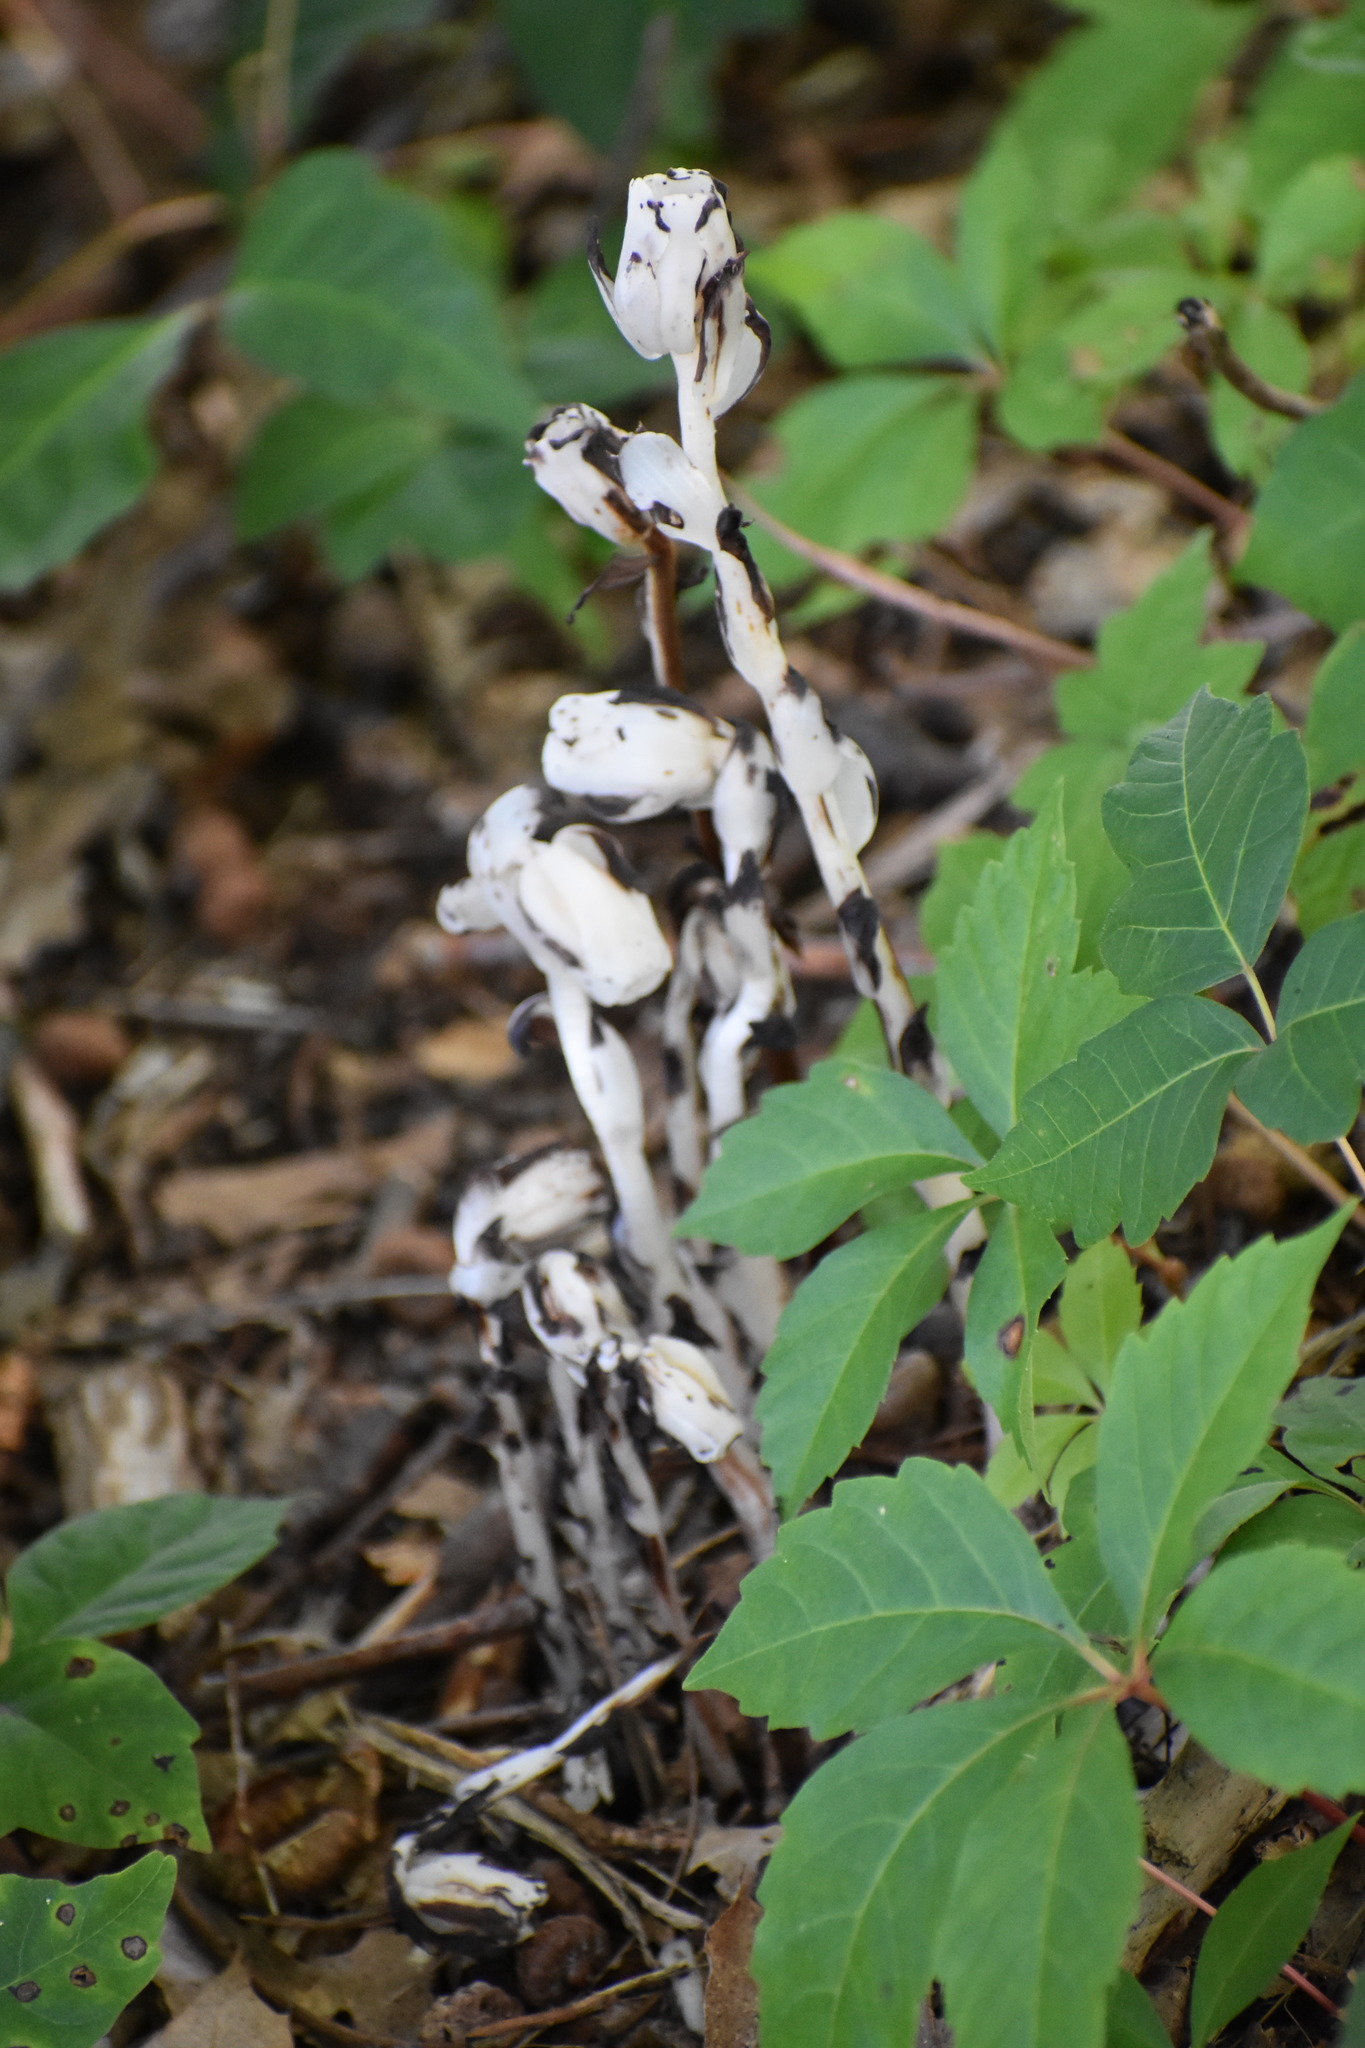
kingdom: Plantae
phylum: Tracheophyta
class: Magnoliopsida
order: Ericales
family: Ericaceae
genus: Monotropa
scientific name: Monotropa uniflora
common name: Convulsion root
